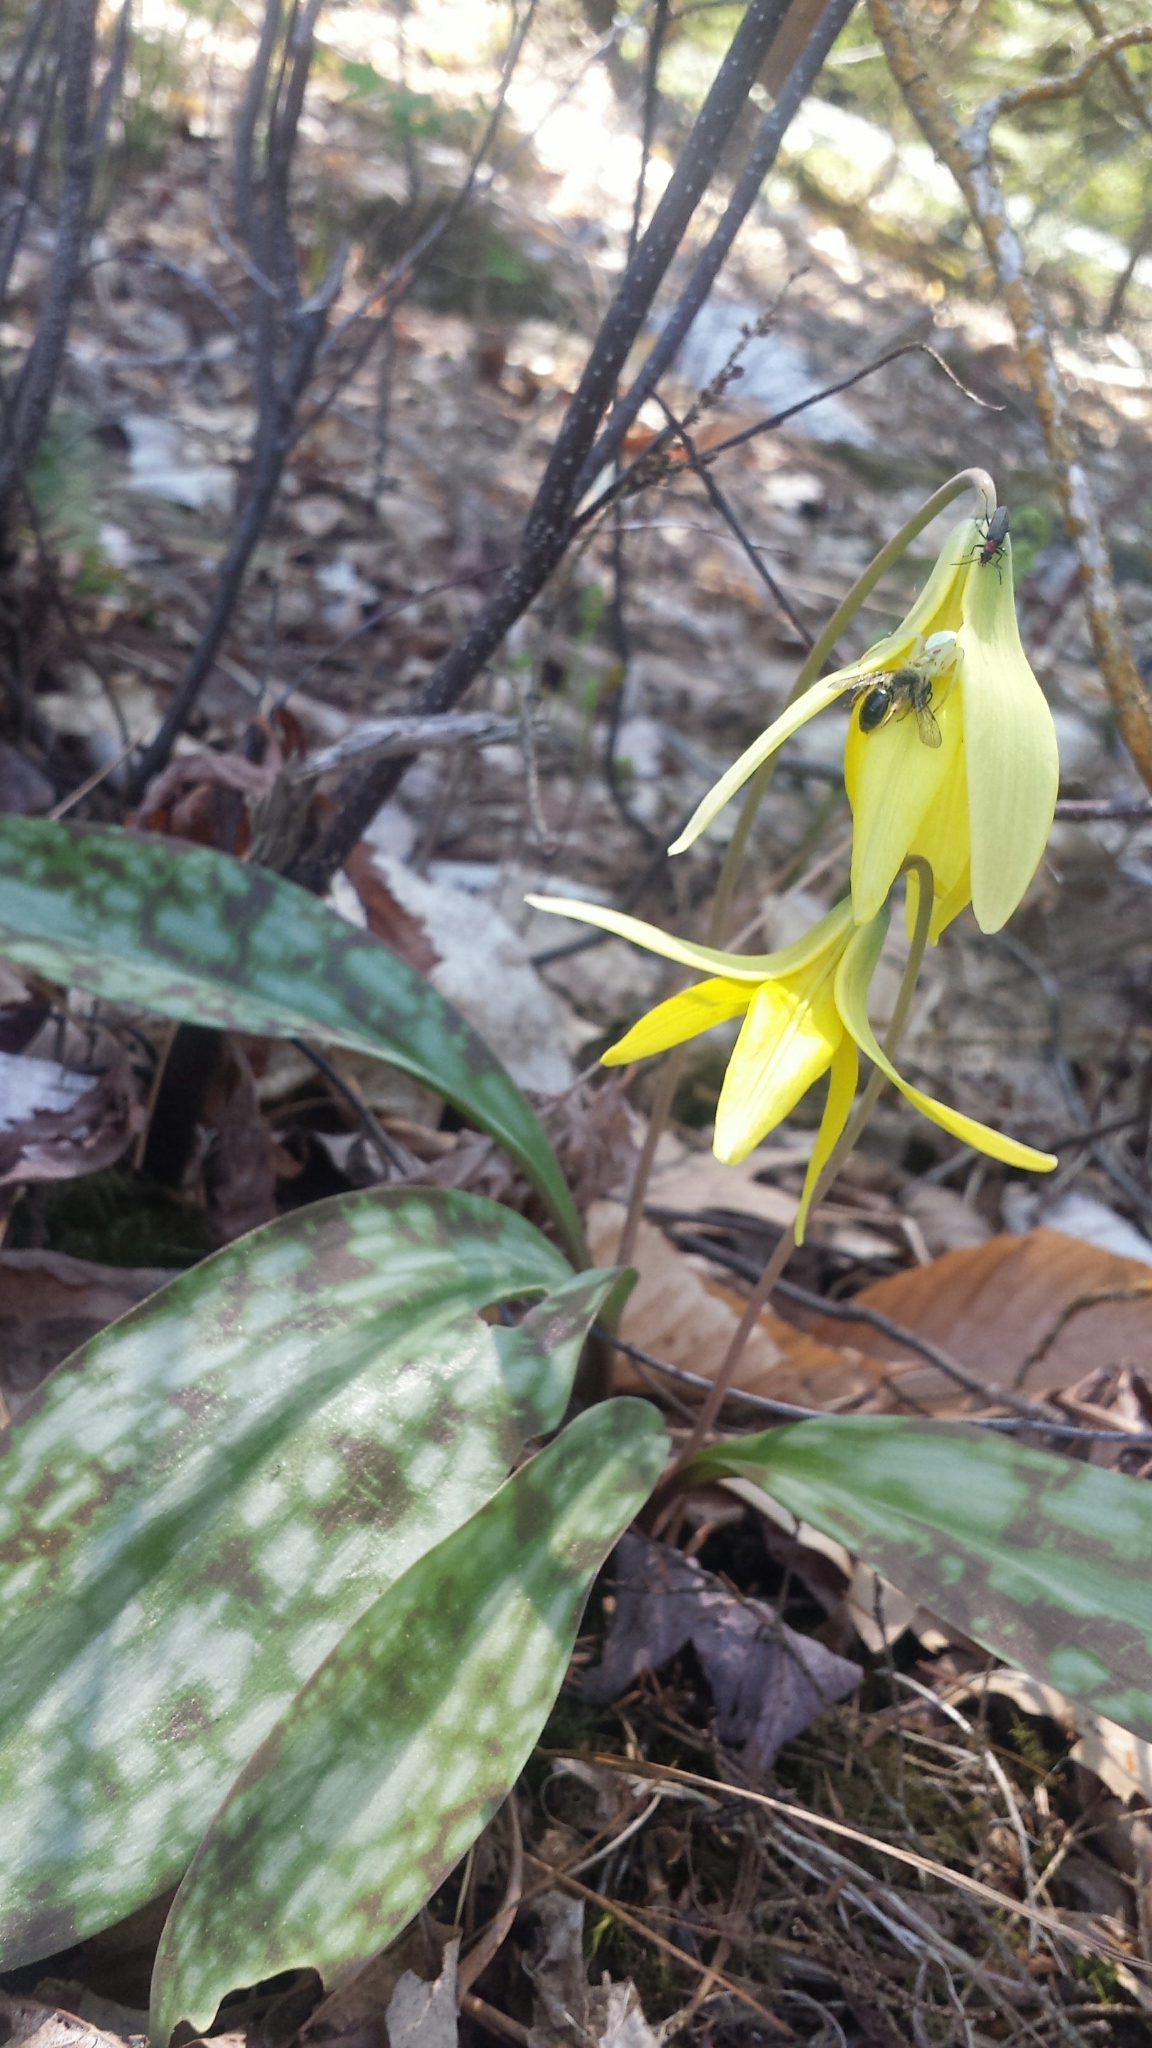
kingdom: Plantae
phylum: Tracheophyta
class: Liliopsida
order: Liliales
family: Liliaceae
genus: Erythronium
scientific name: Erythronium americanum
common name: Yellow adder's-tongue
